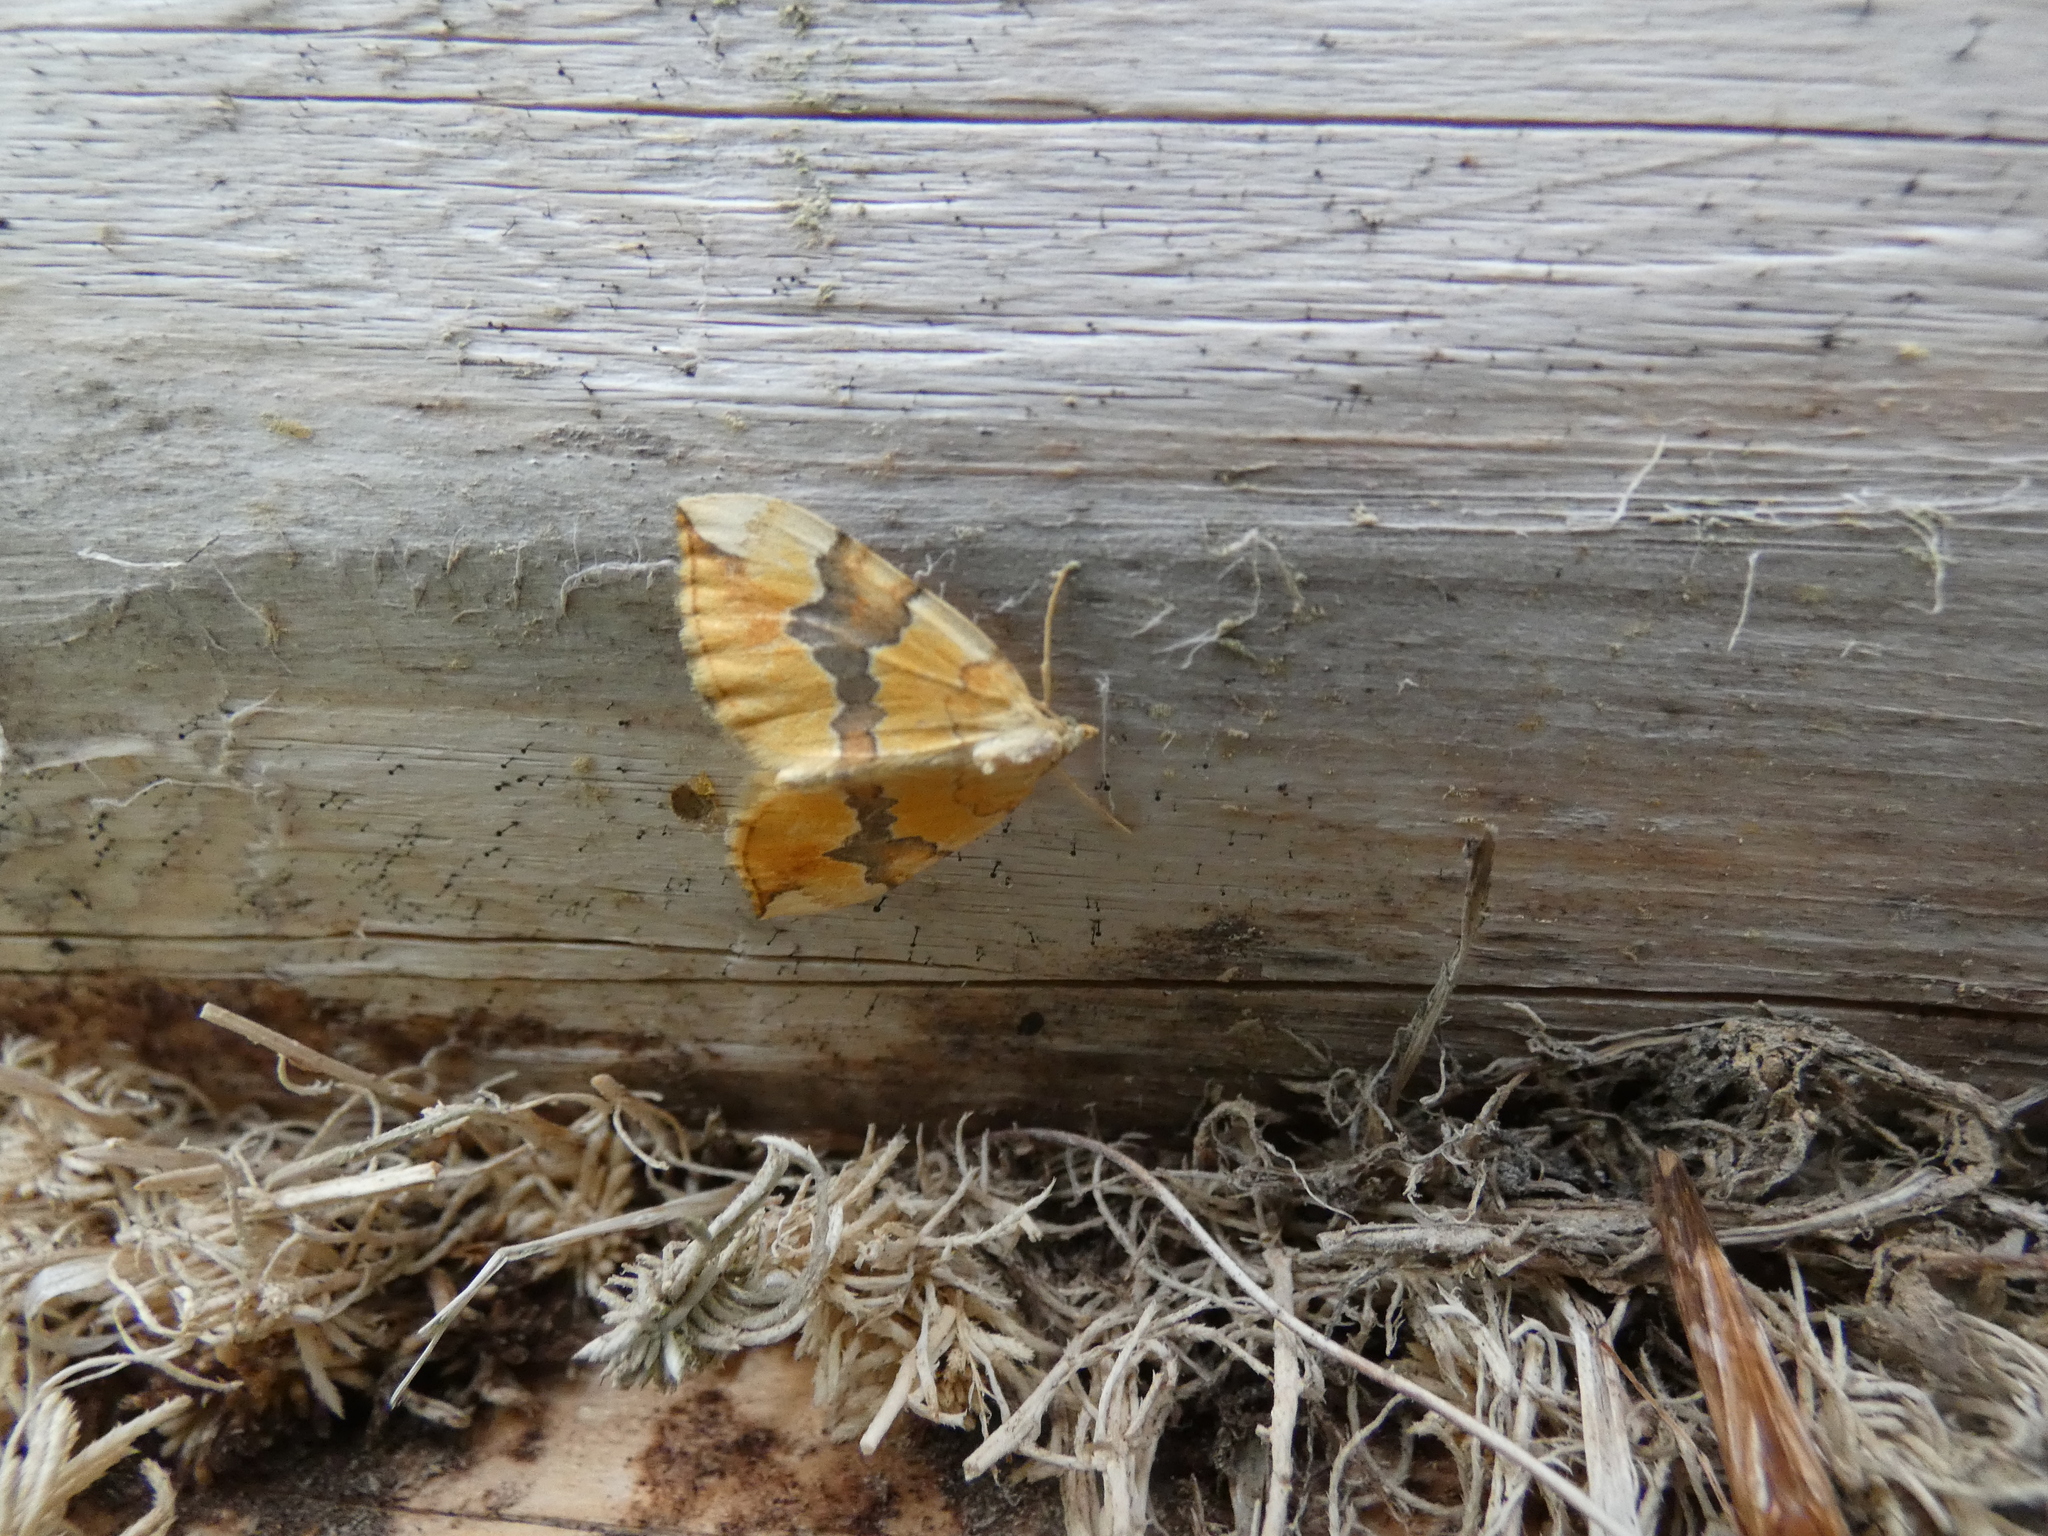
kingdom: Animalia
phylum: Arthropoda
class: Insecta
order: Lepidoptera
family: Geometridae
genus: Cidaria
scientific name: Cidaria fulvata
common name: Barred yellow
